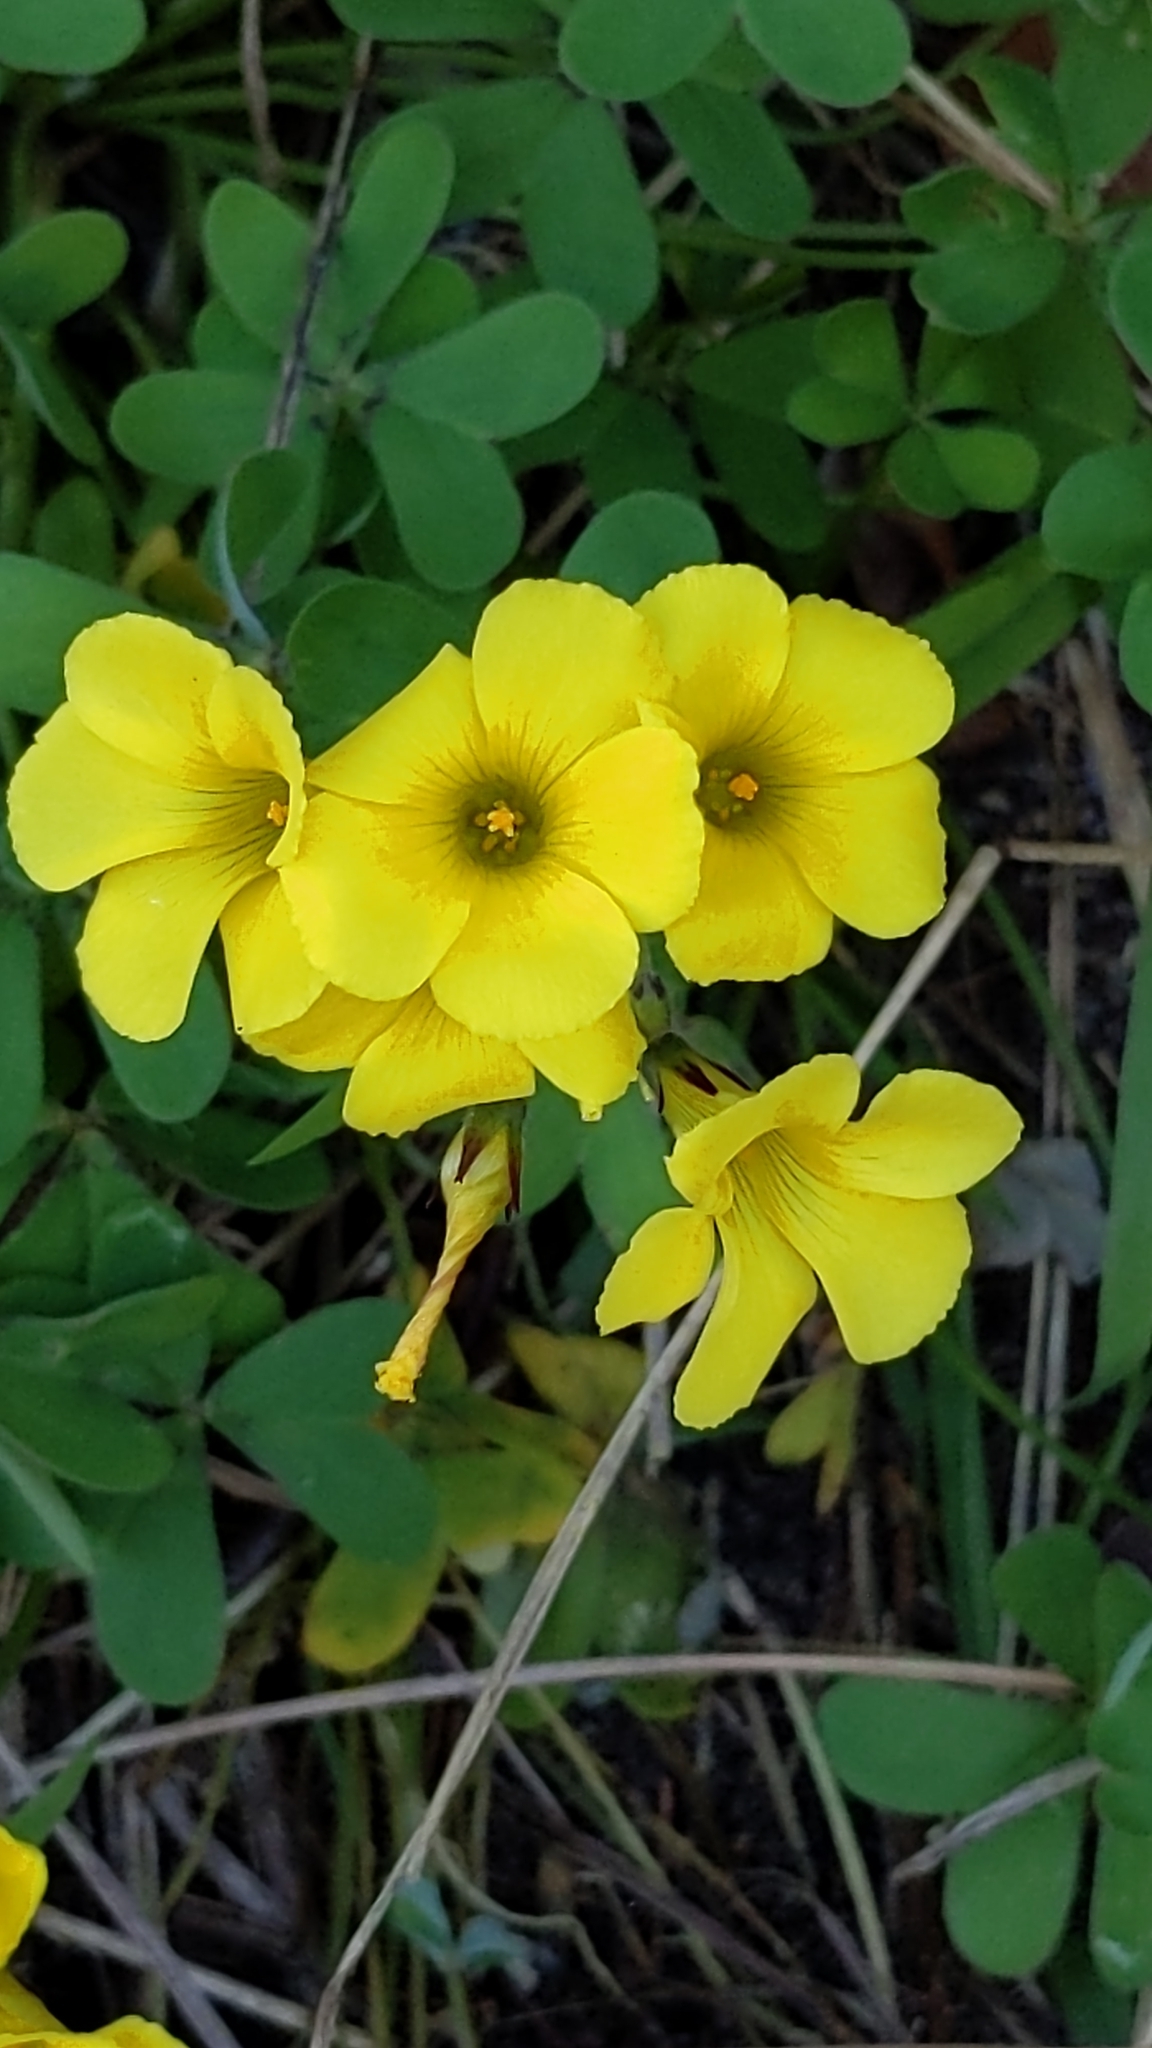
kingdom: Plantae
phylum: Tracheophyta
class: Magnoliopsida
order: Oxalidales
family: Oxalidaceae
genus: Oxalis
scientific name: Oxalis pes-caprae
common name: Bermuda-buttercup
